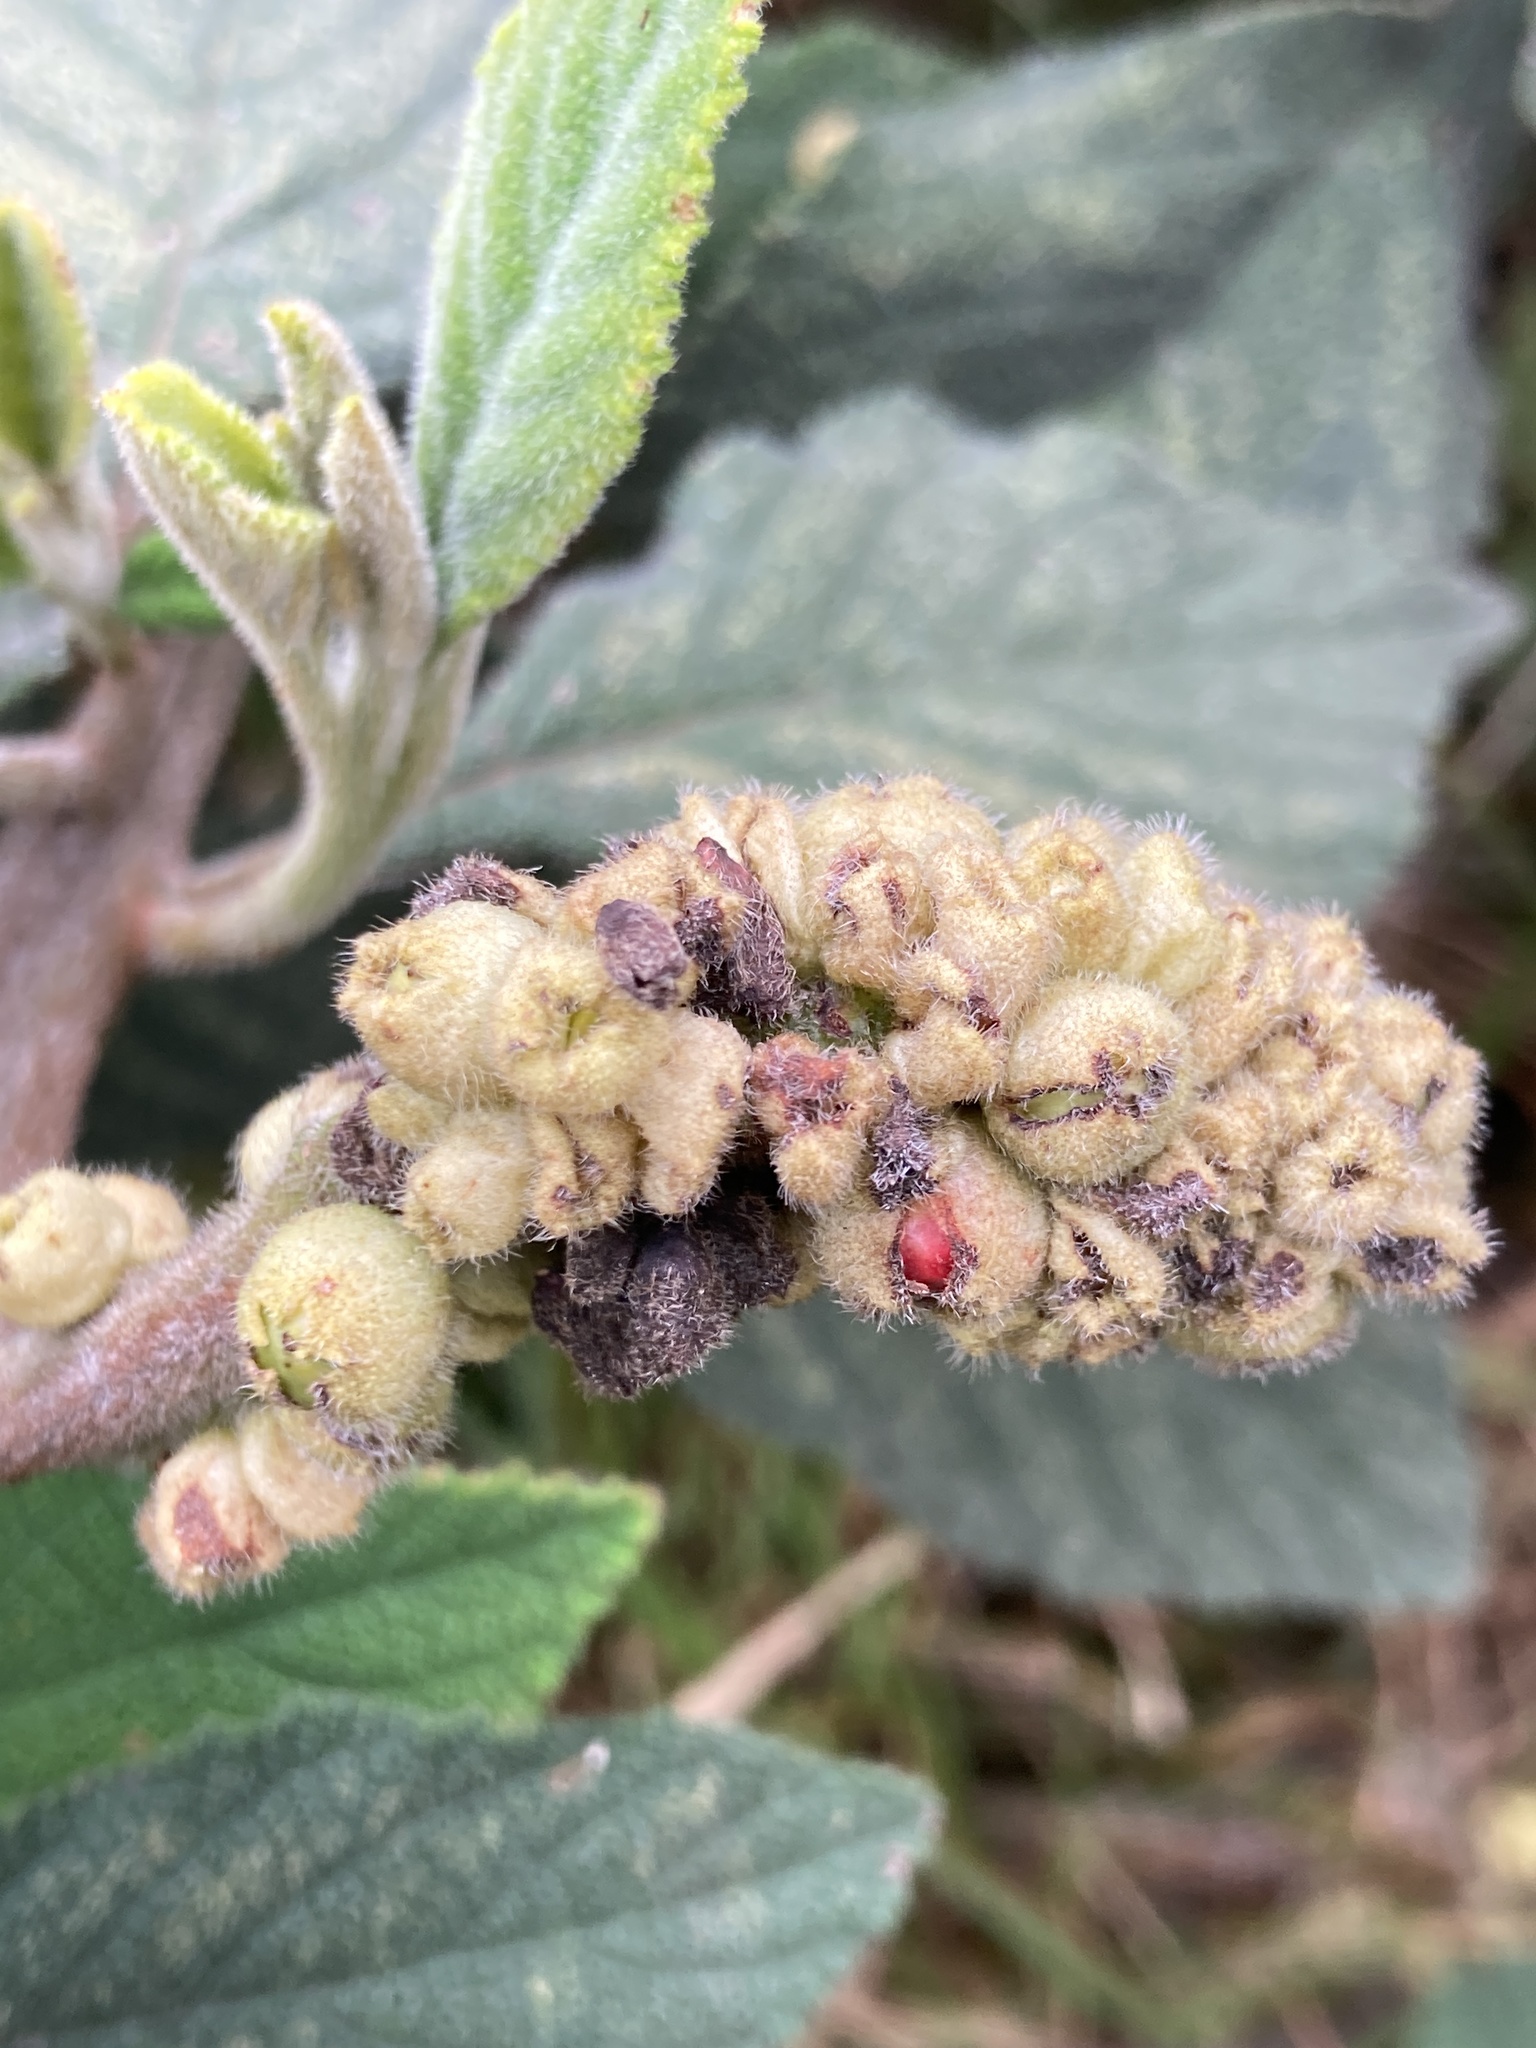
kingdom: Plantae
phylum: Tracheophyta
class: Magnoliopsida
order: Boraginales
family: Cordiaceae
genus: Varronia
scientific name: Varronia cylindrostachya
